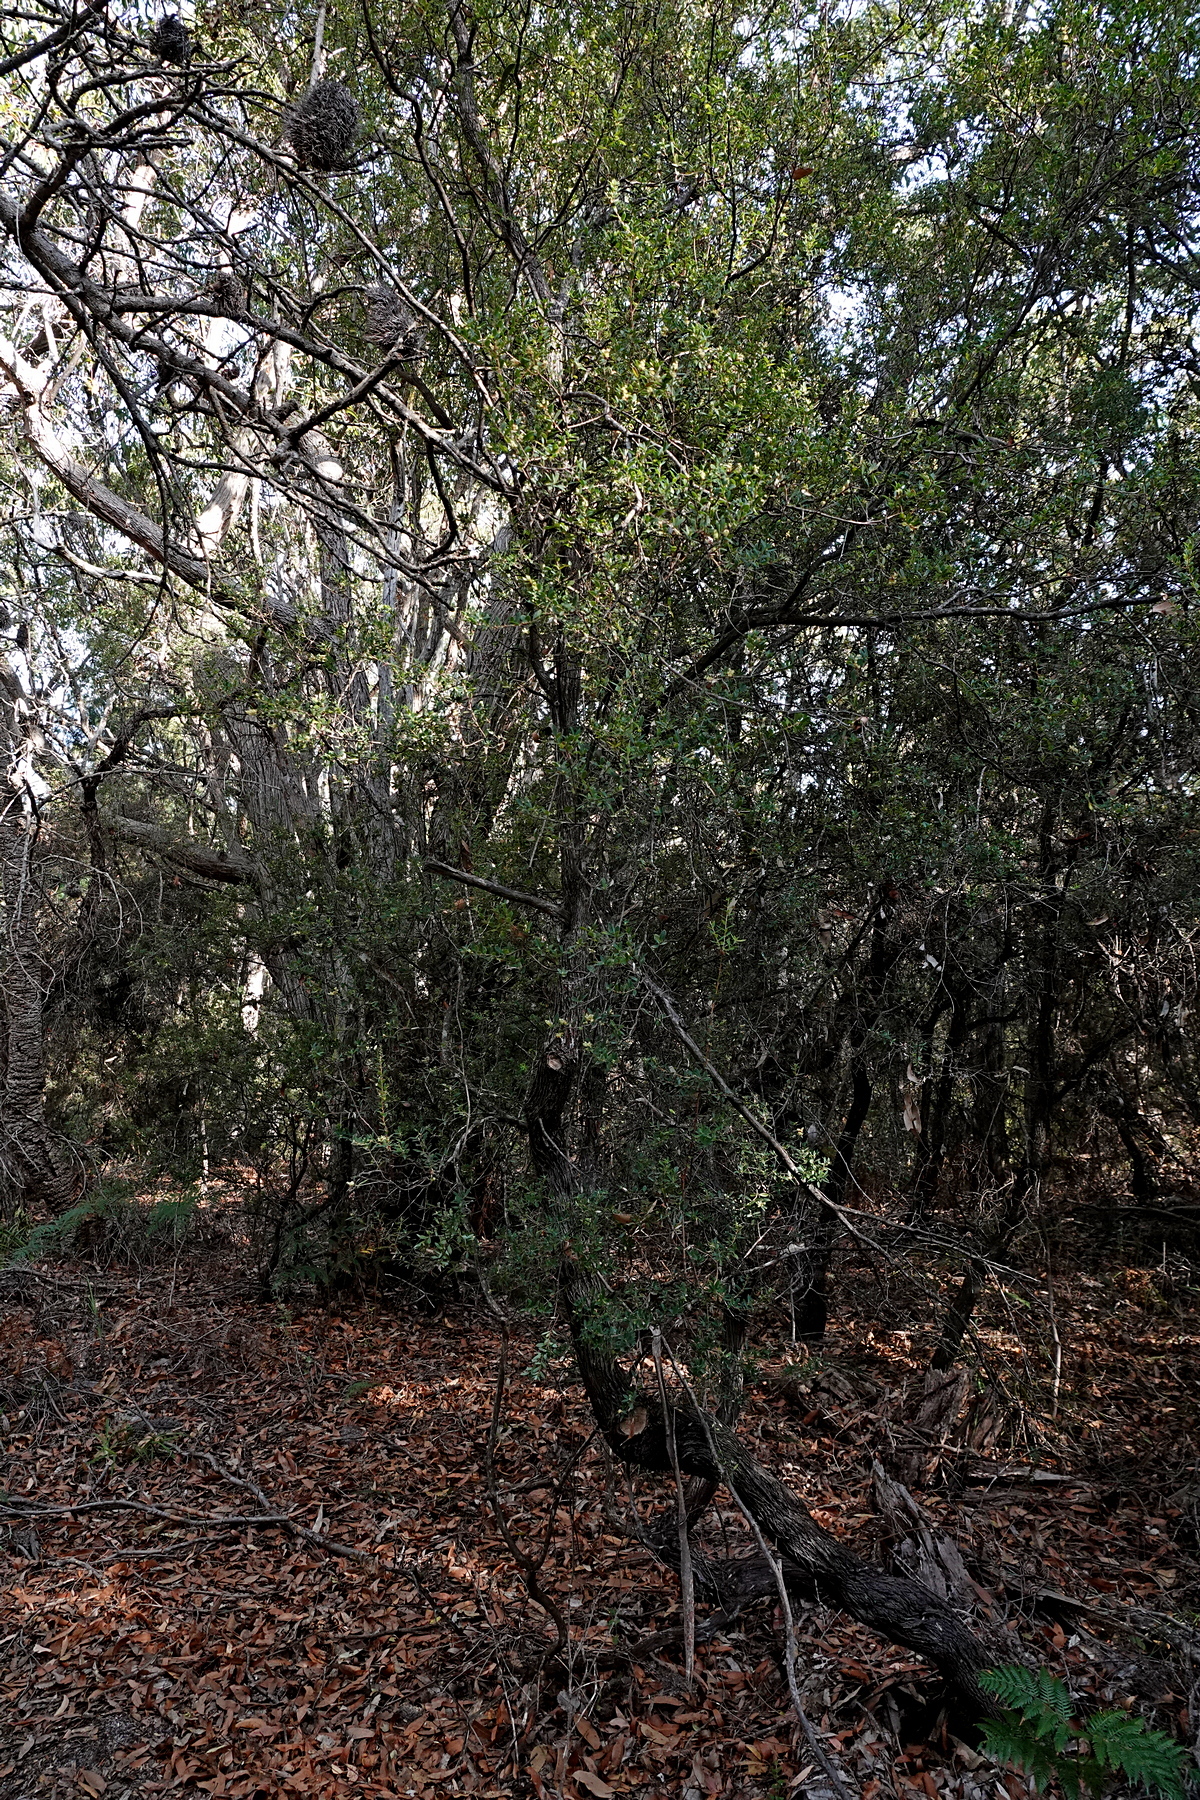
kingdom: Plantae
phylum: Tracheophyta
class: Magnoliopsida
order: Ericales
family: Ericaceae
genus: Monotoca
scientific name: Monotoca elliptica
